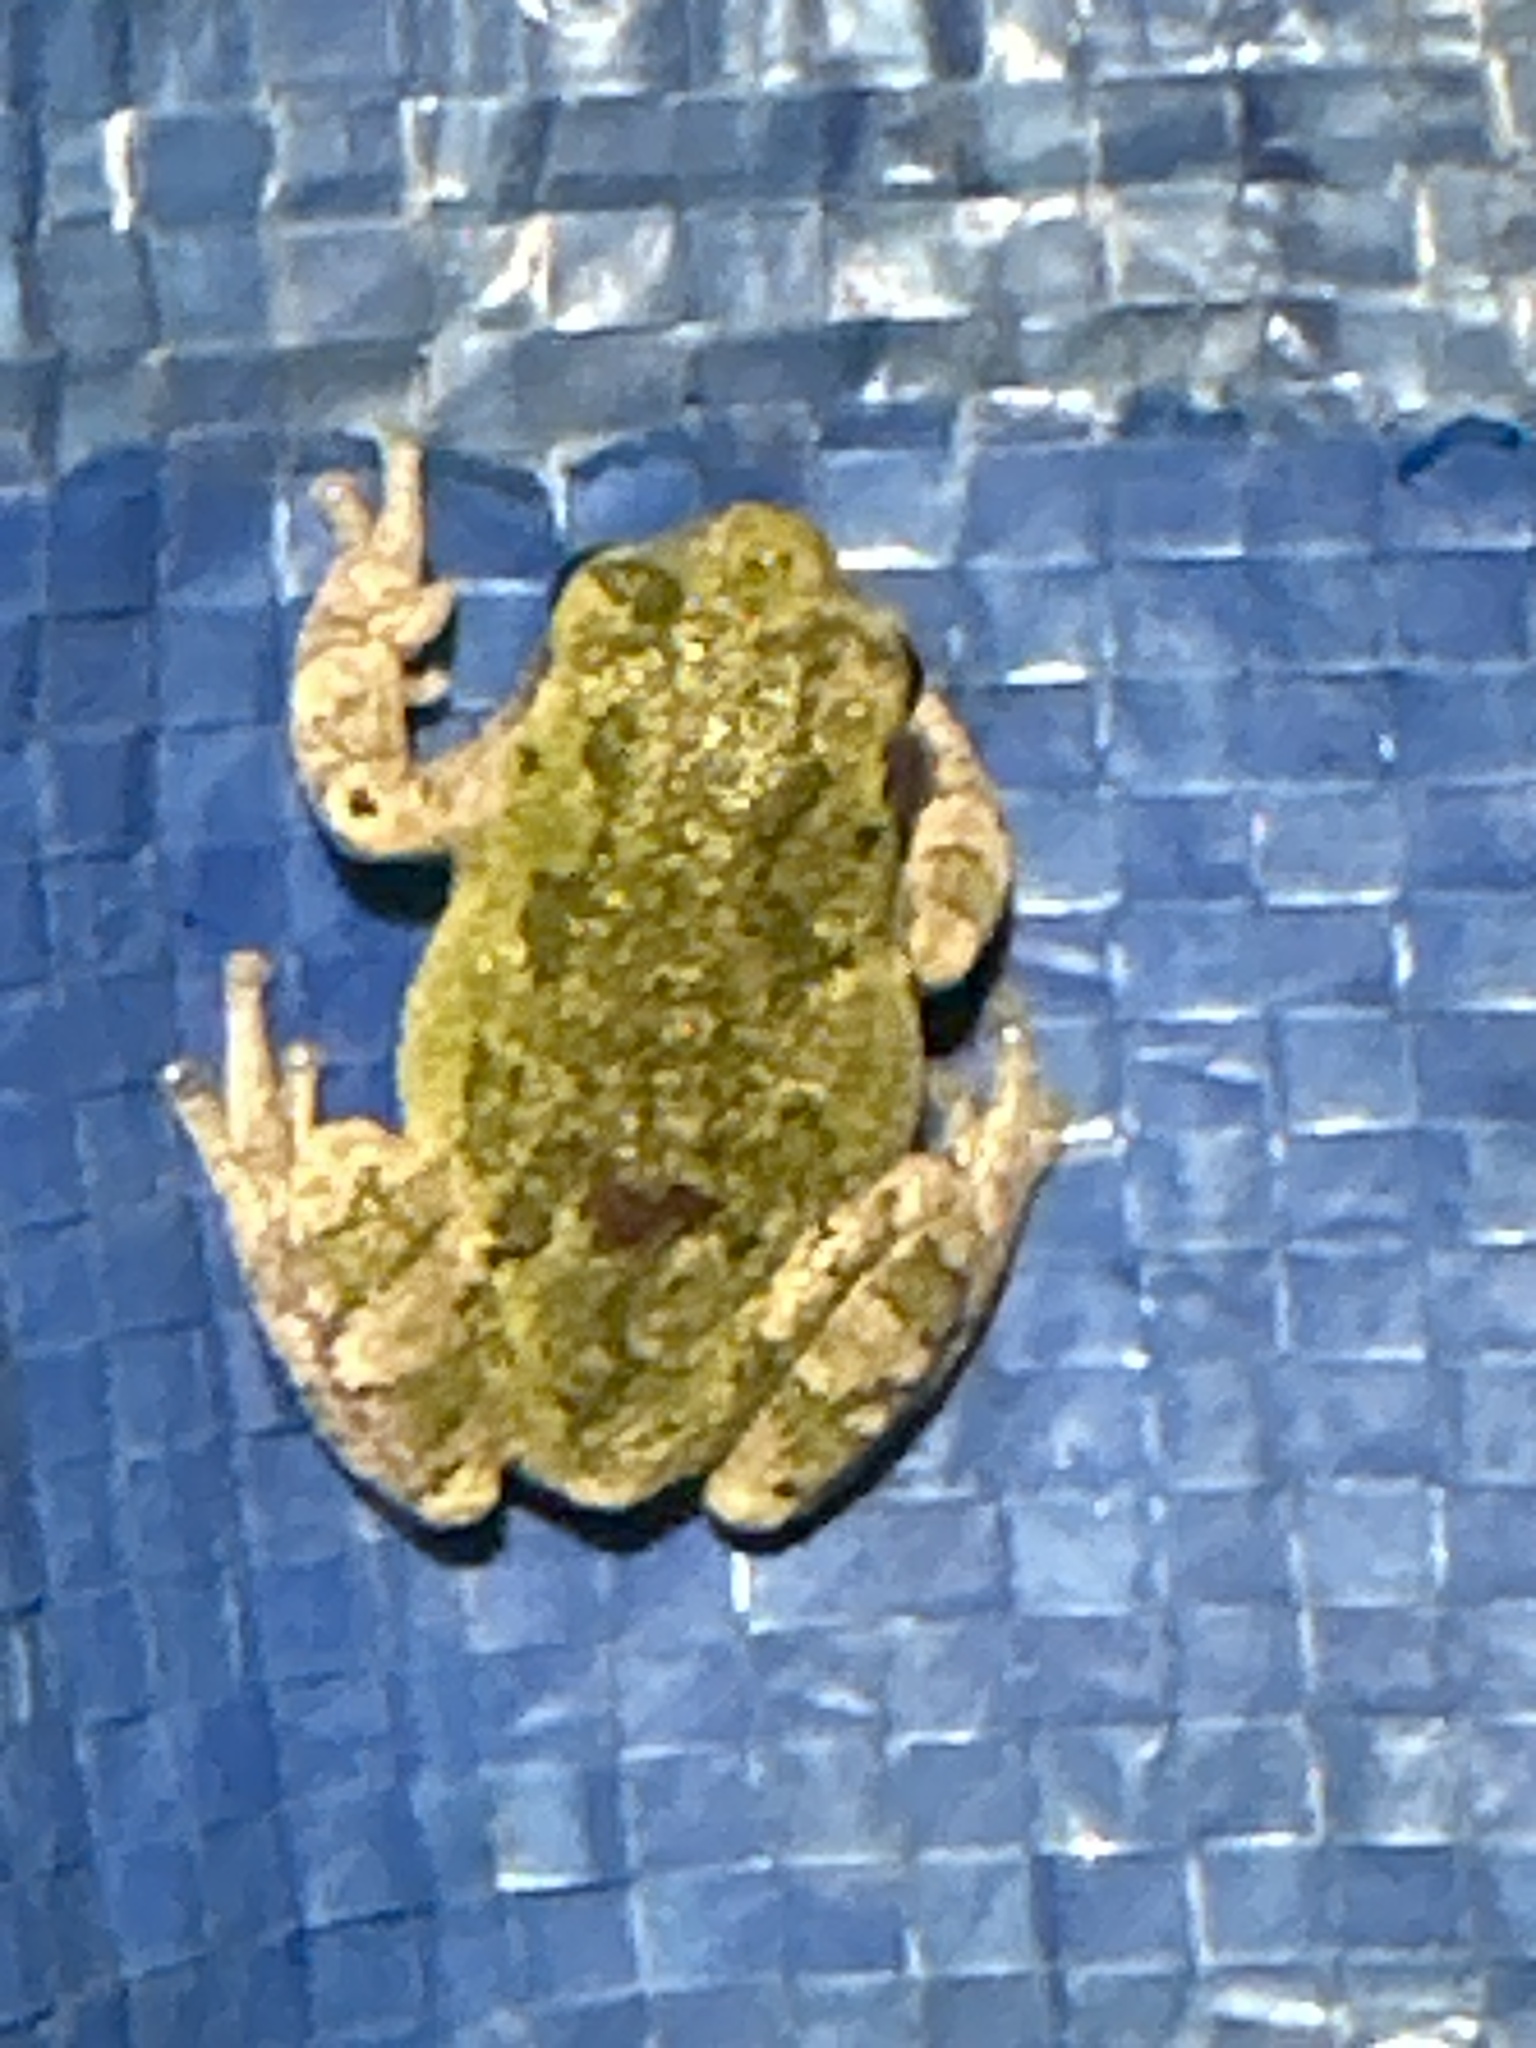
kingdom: Animalia
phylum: Chordata
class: Amphibia
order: Anura
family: Hylidae
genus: Hyla
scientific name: Hyla
